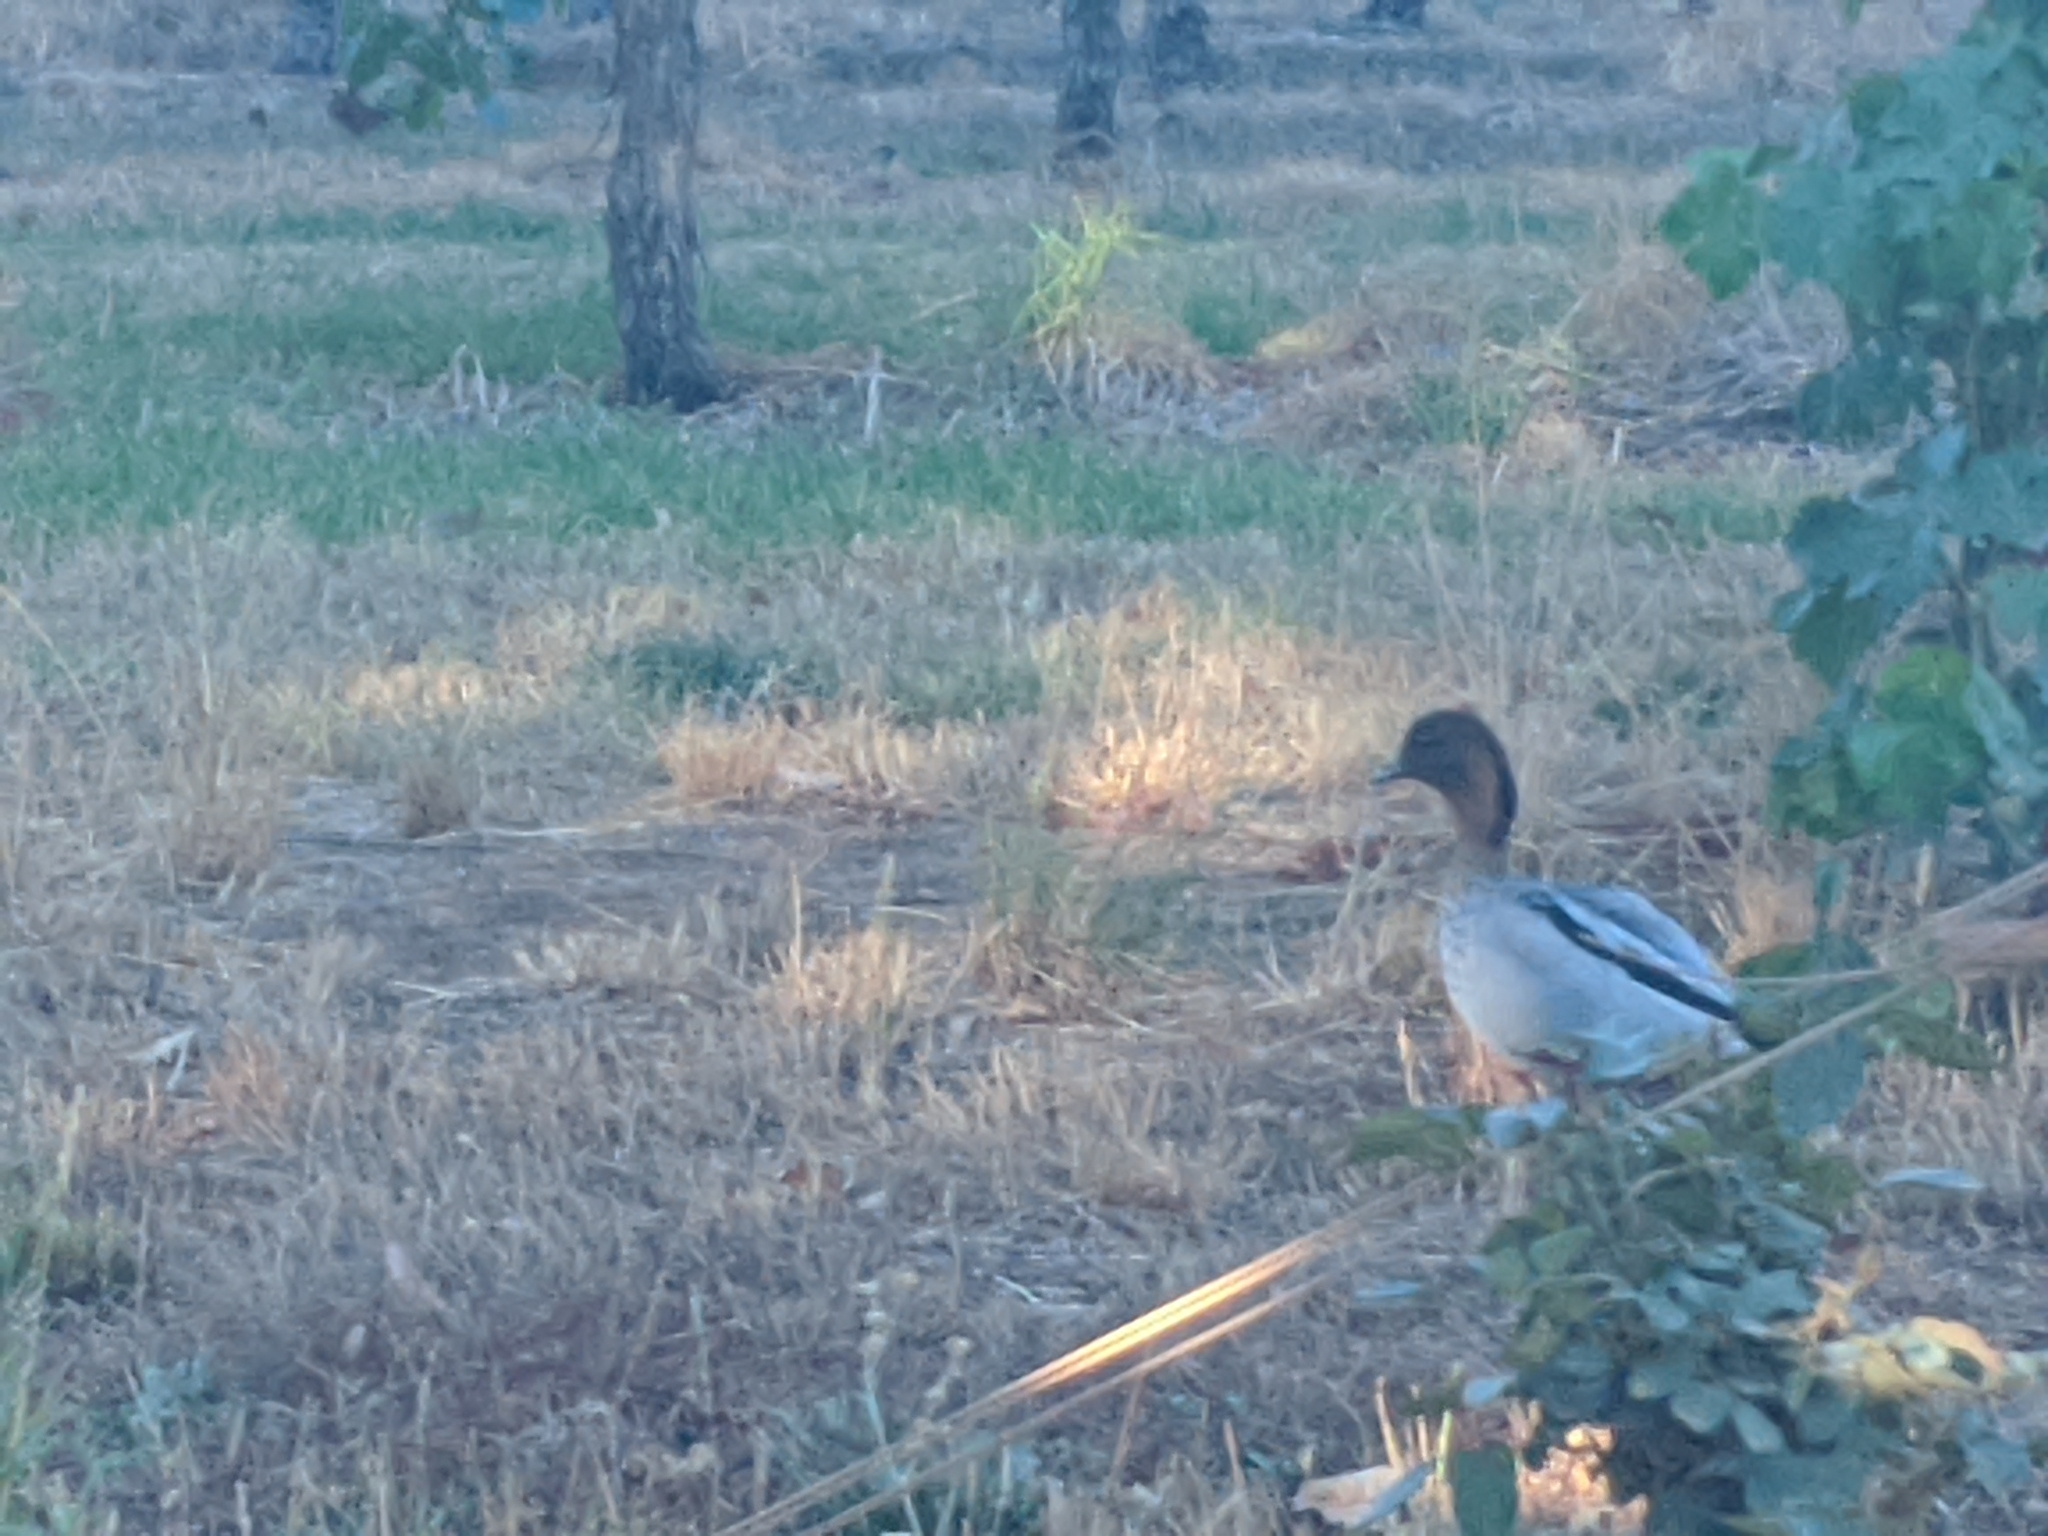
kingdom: Animalia
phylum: Chordata
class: Aves
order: Anseriformes
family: Anatidae
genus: Chenonetta
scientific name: Chenonetta jubata
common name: Maned duck
